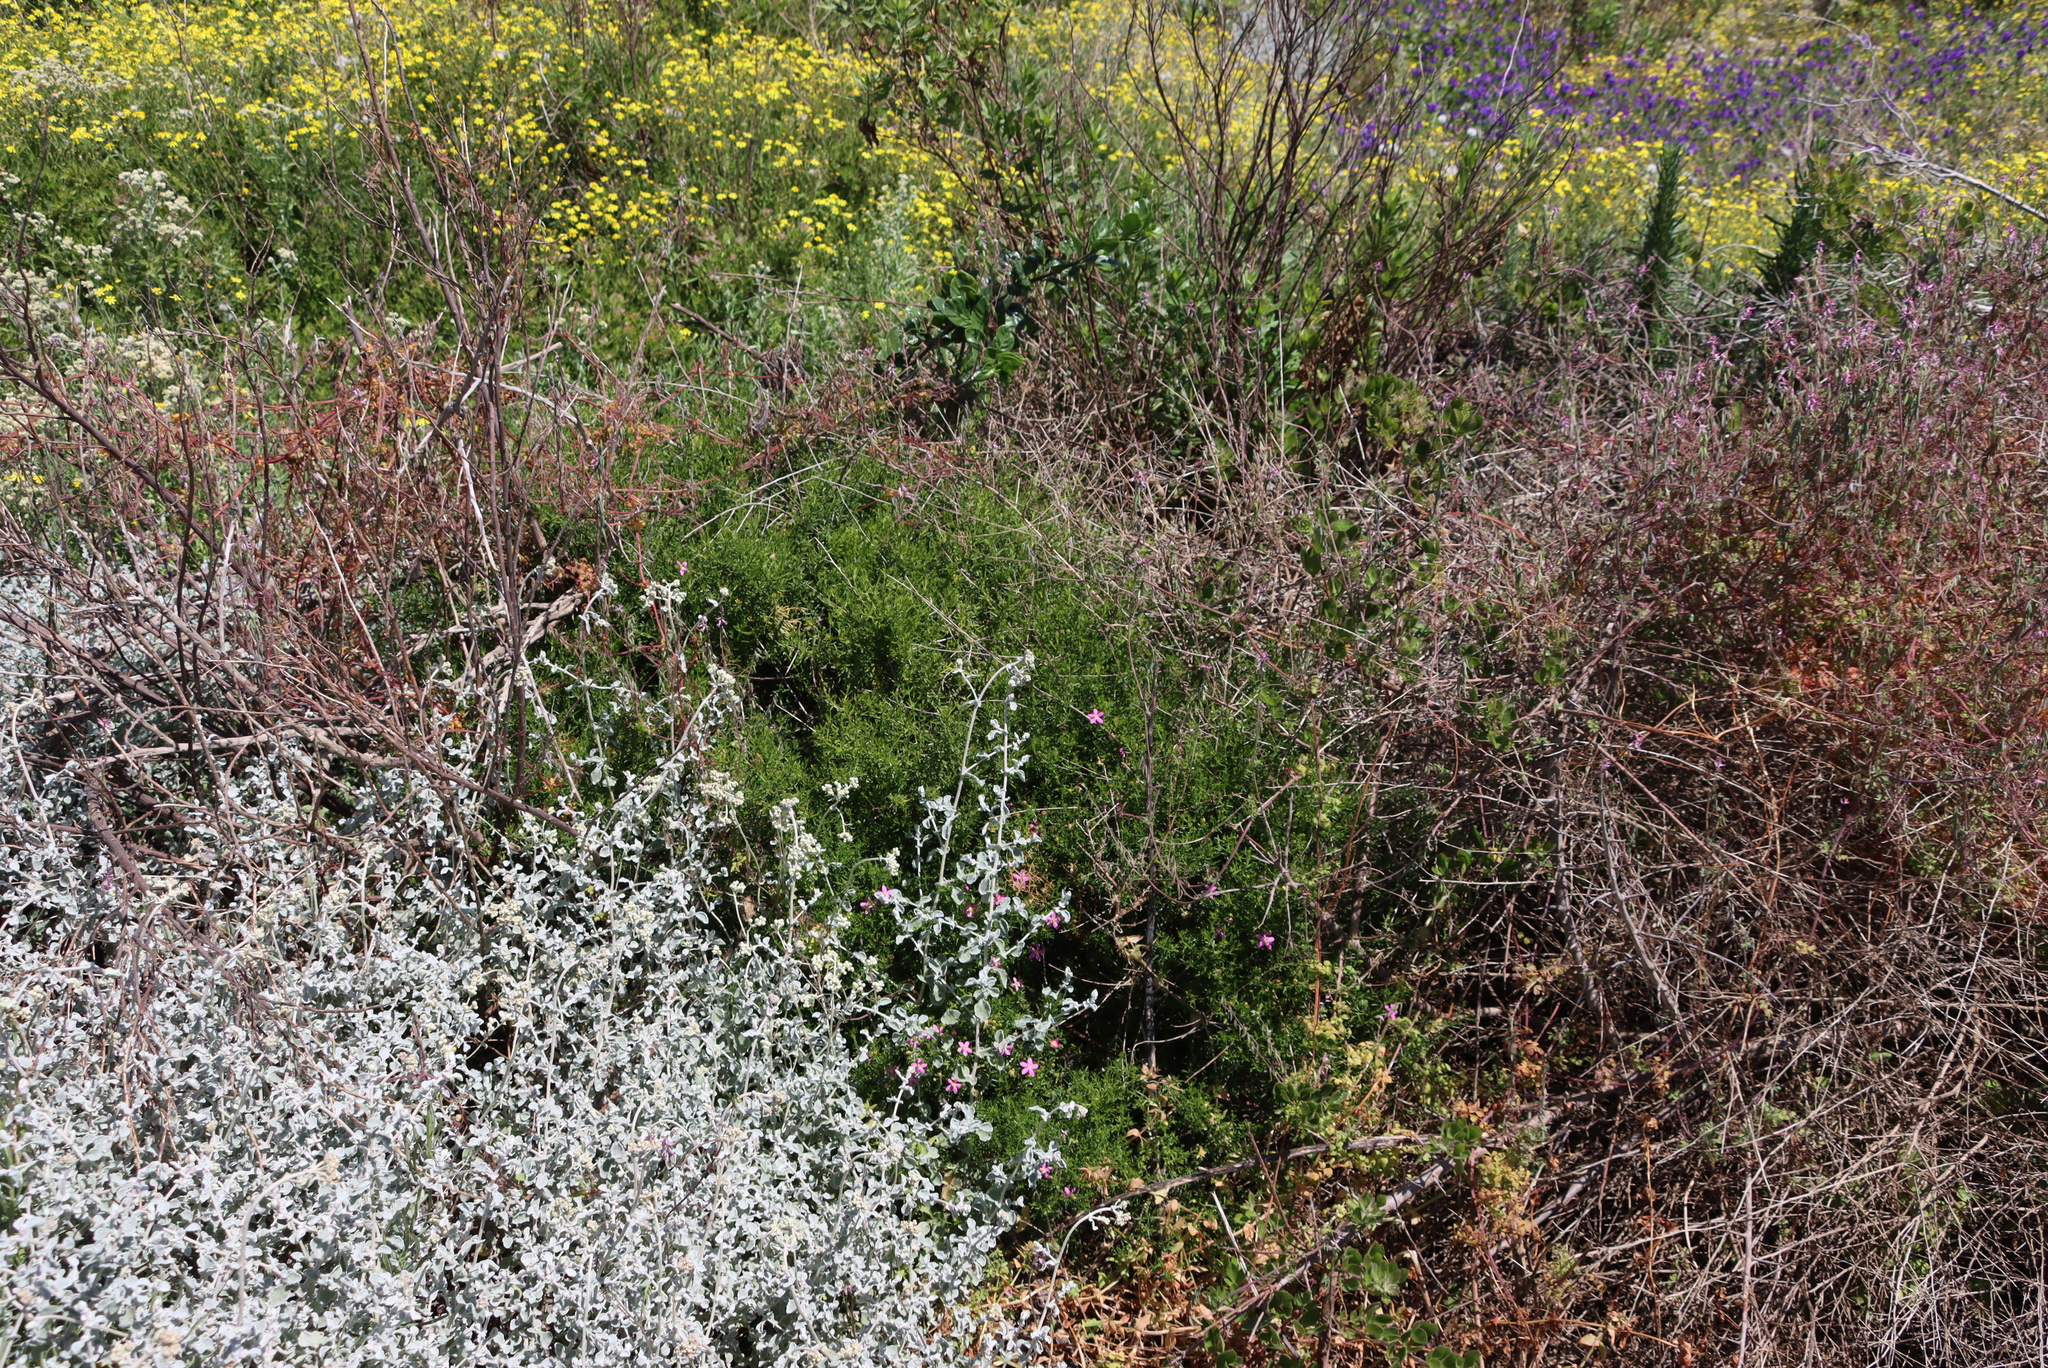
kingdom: Plantae
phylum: Tracheophyta
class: Magnoliopsida
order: Gentianales
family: Gentianaceae
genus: Chironia
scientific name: Chironia baccifera
